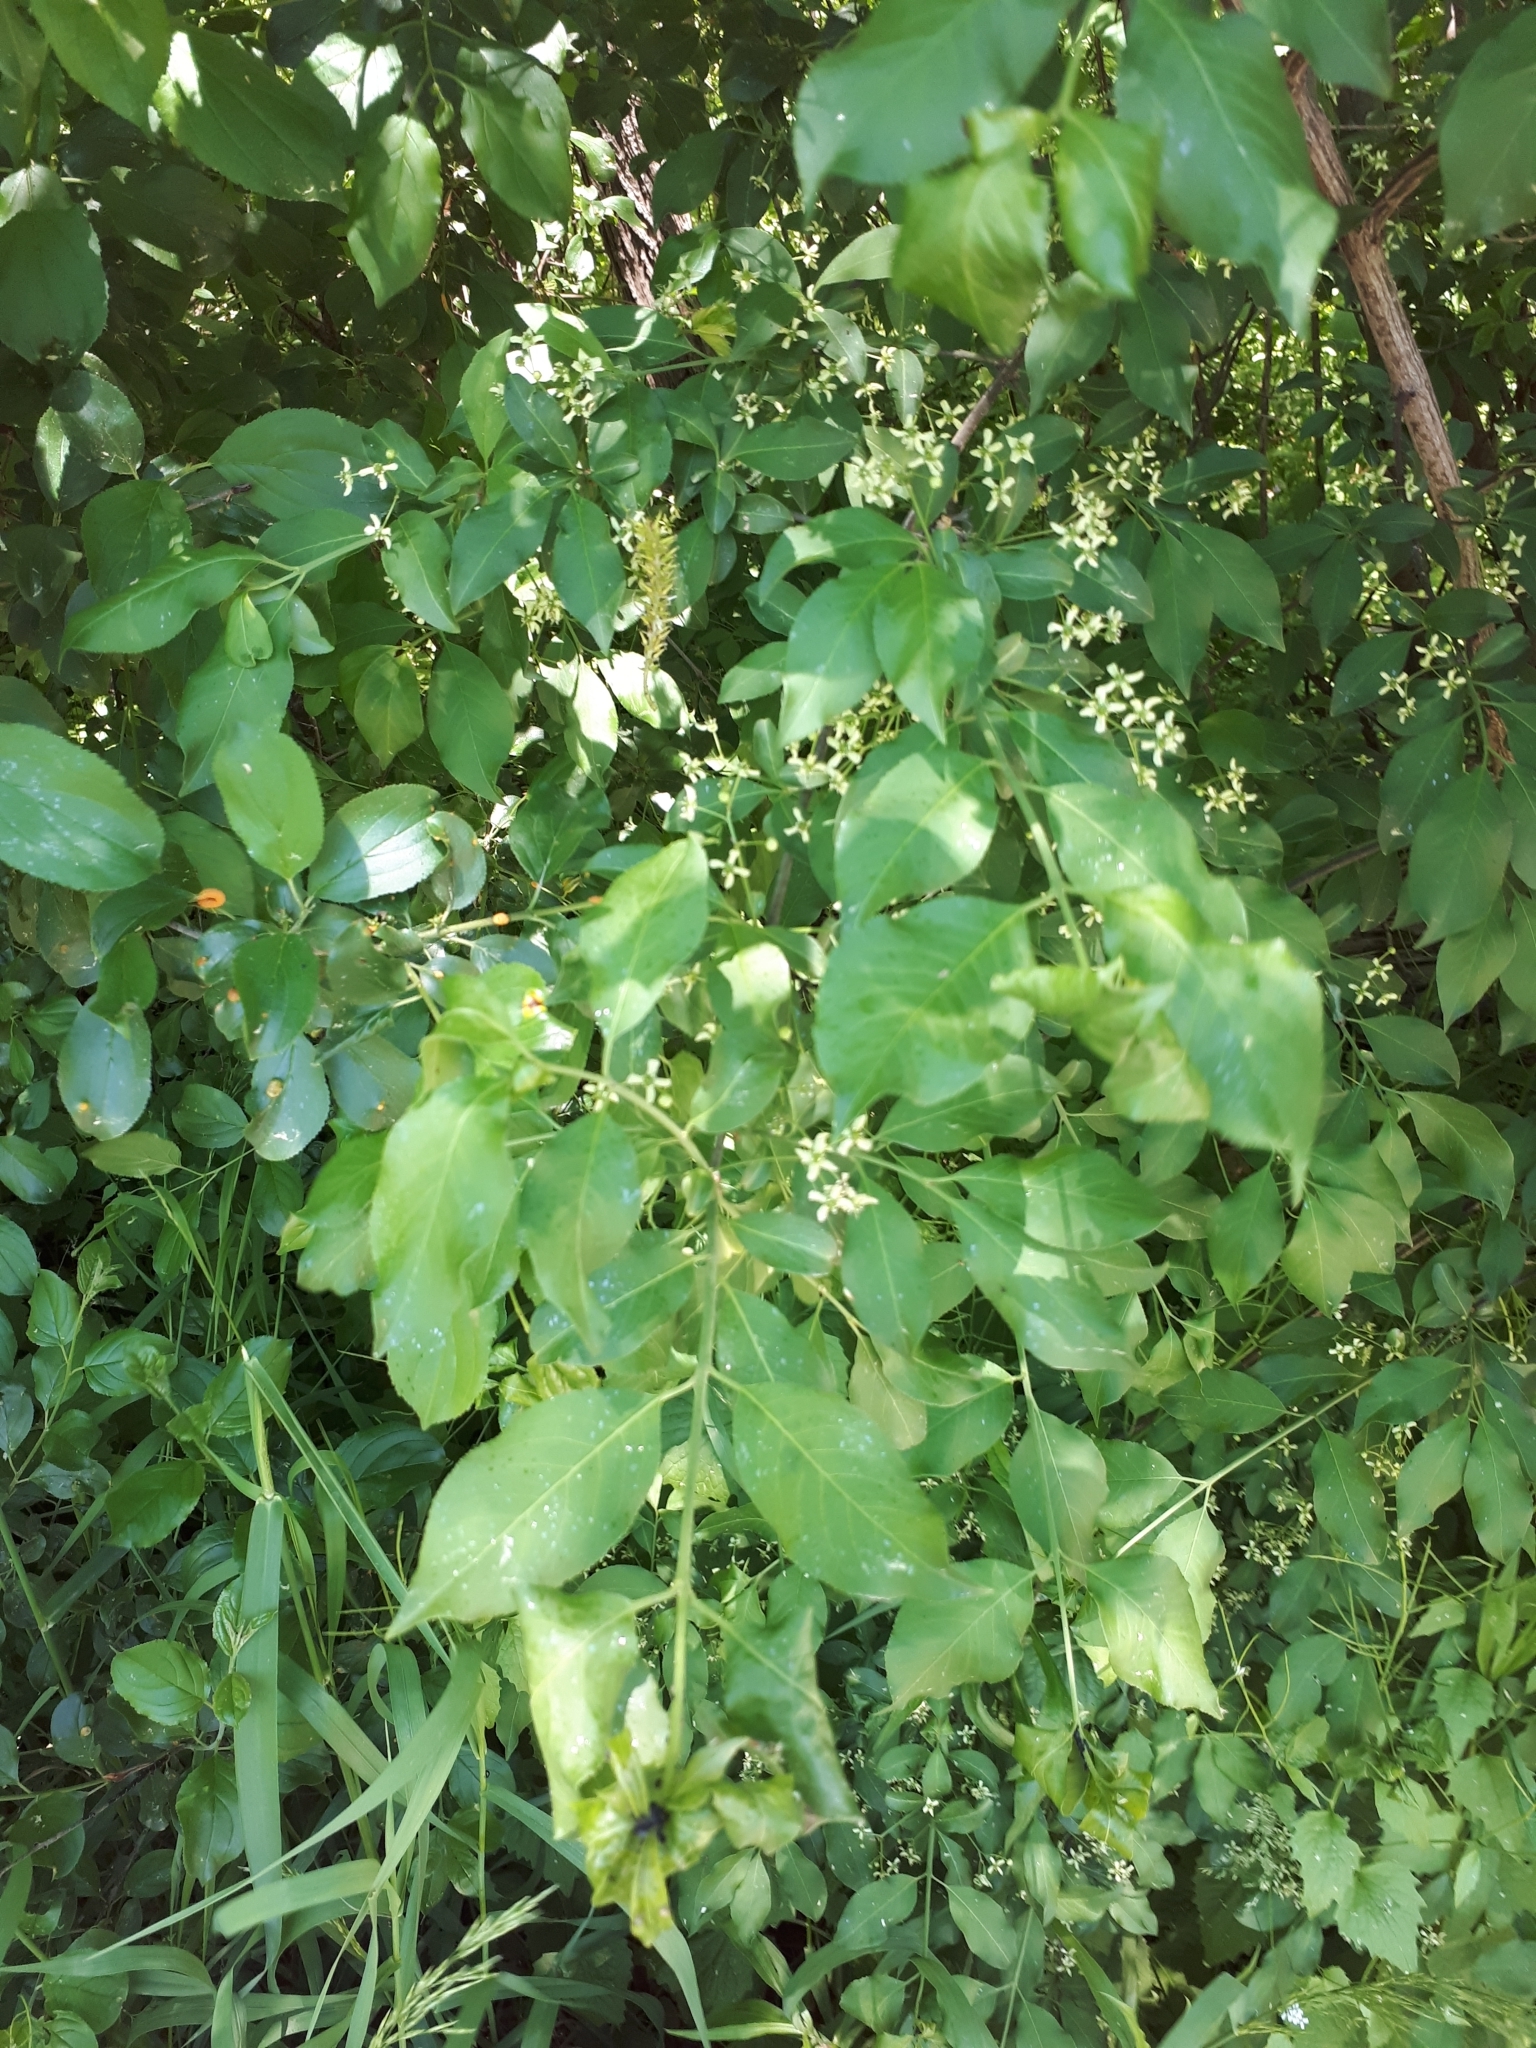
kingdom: Plantae
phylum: Tracheophyta
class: Magnoliopsida
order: Celastrales
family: Celastraceae
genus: Euonymus
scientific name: Euonymus europaeus
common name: Spindle
